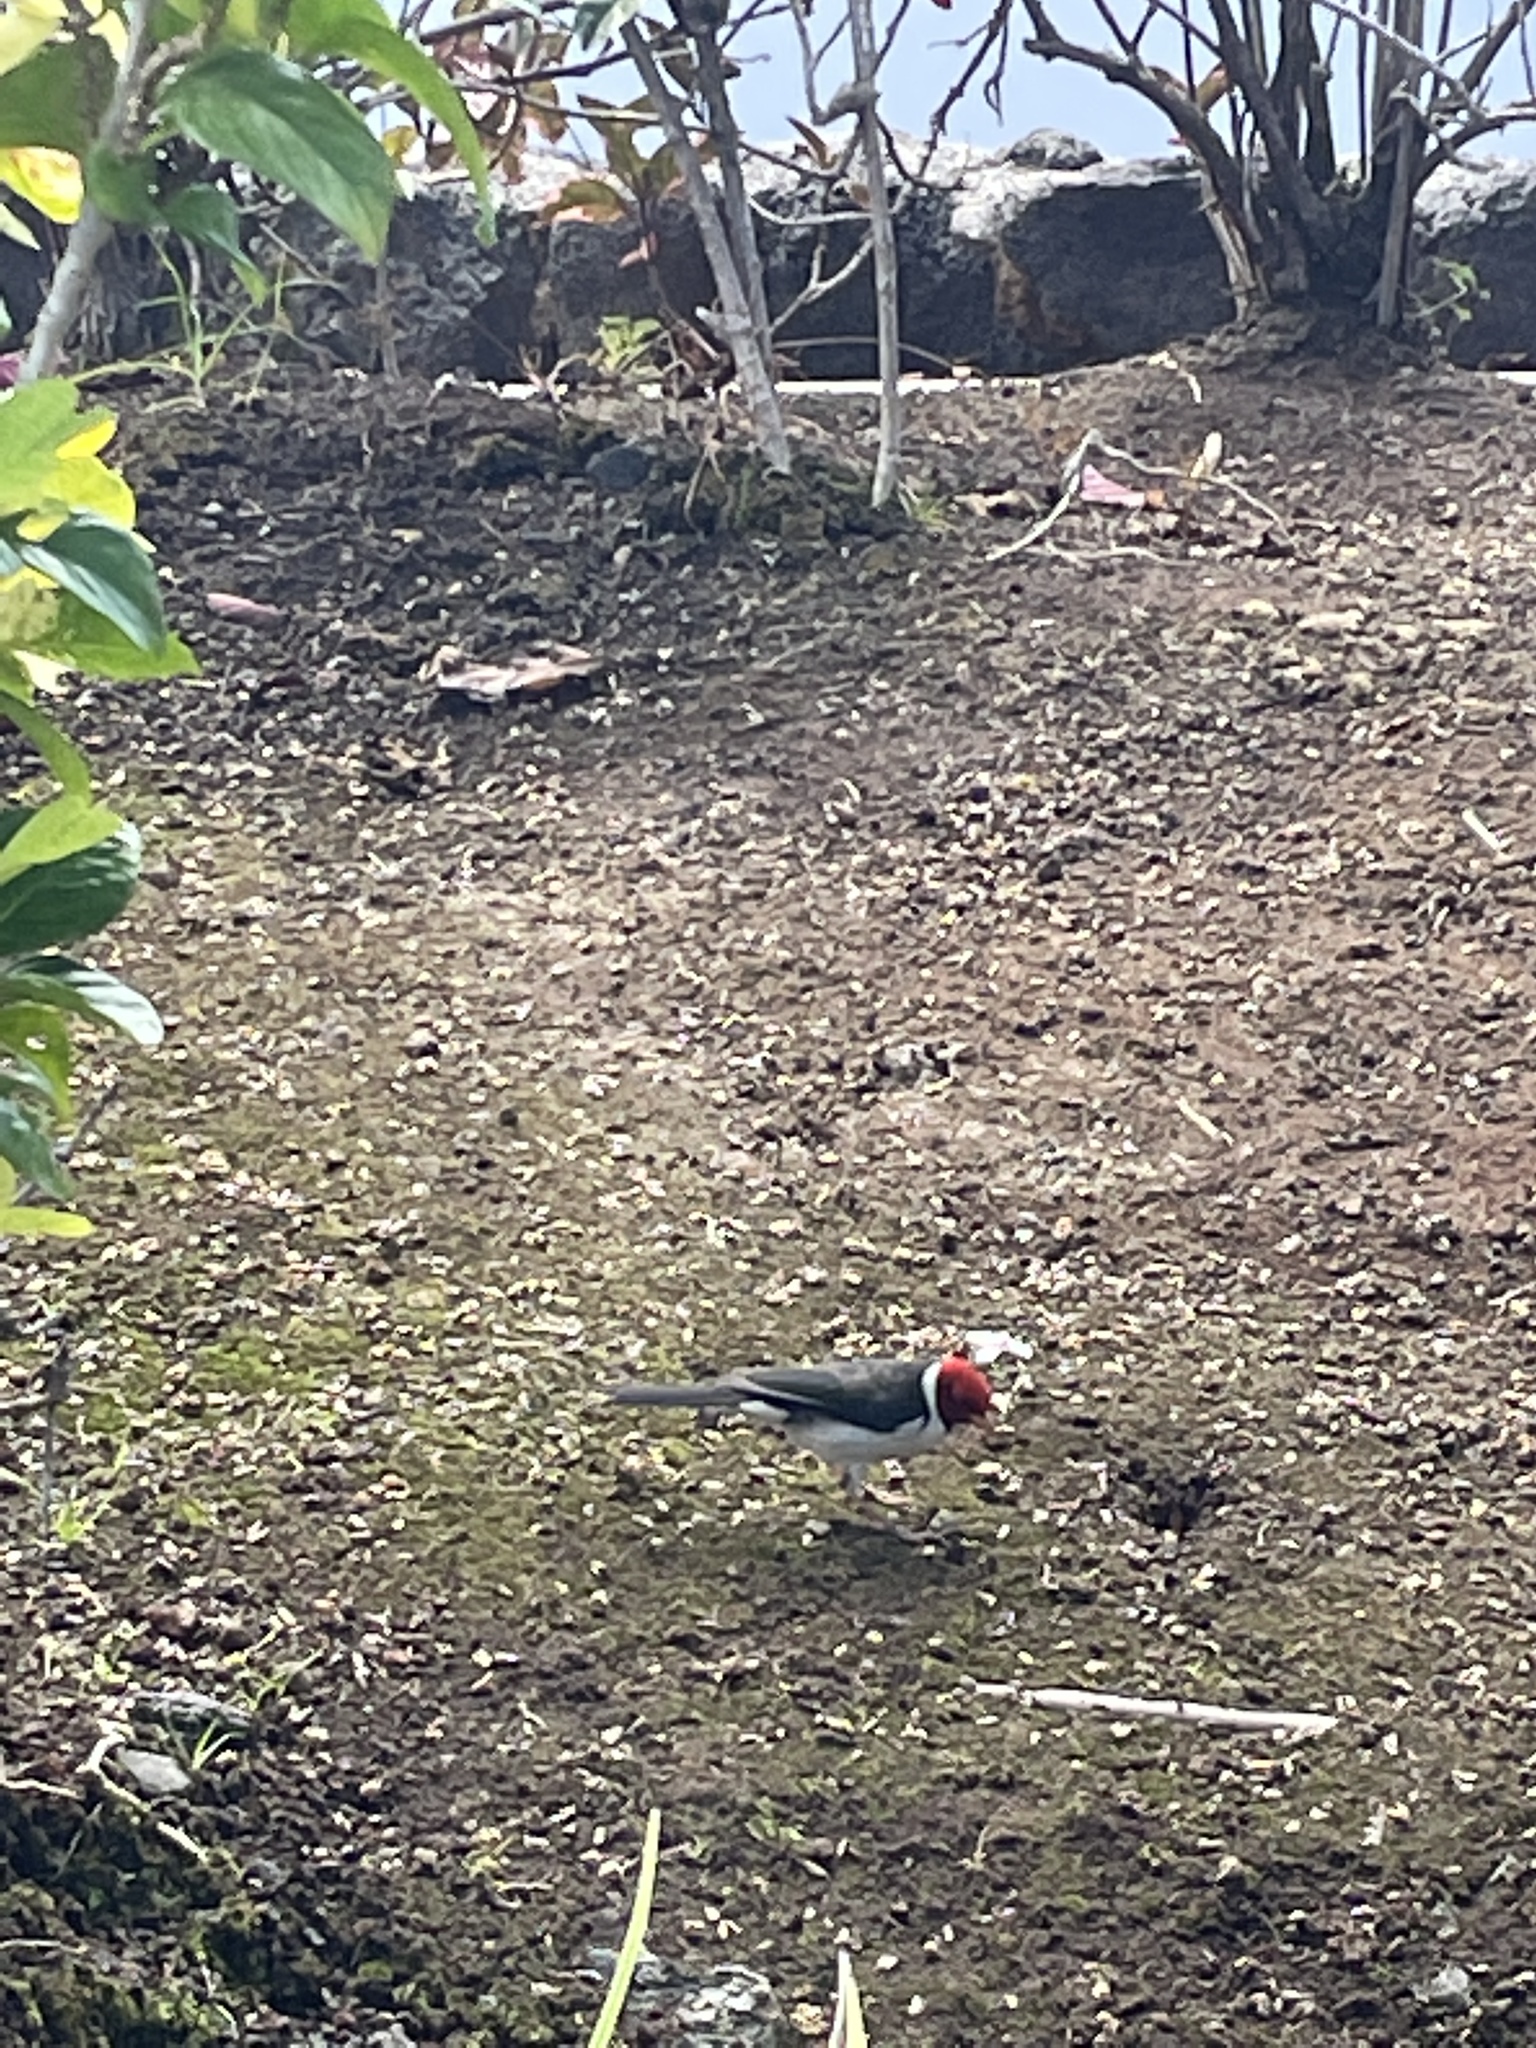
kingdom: Animalia
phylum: Chordata
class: Aves
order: Passeriformes
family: Thraupidae
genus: Paroaria
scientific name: Paroaria capitata
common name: Yellow-billed cardinal
